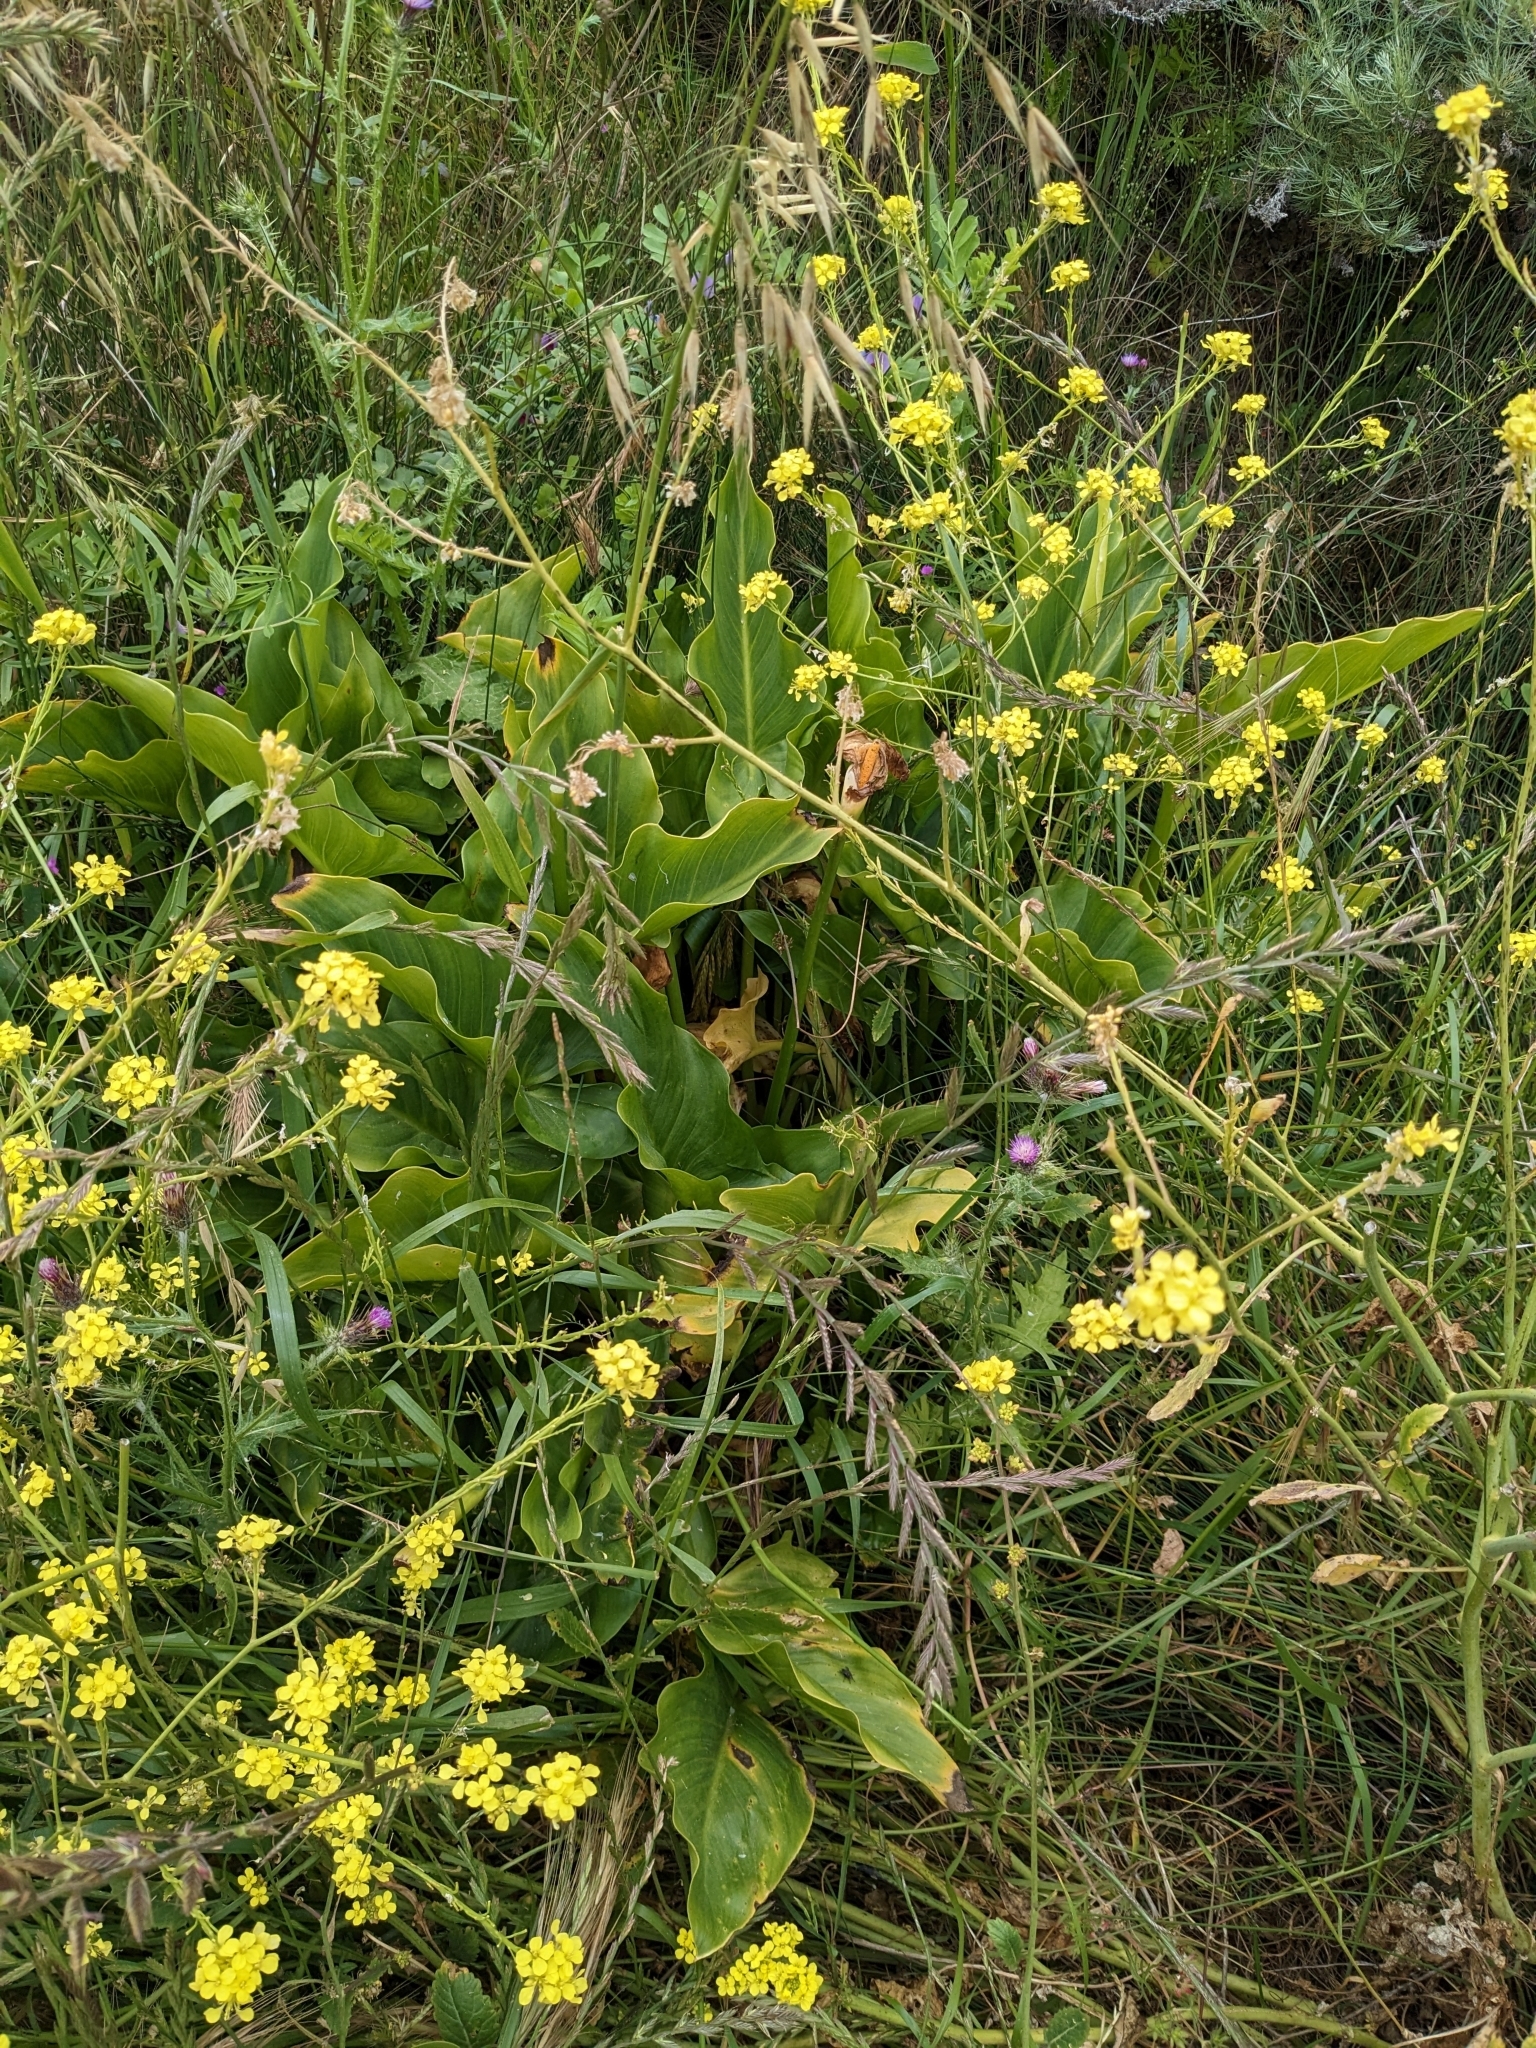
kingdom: Plantae
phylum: Tracheophyta
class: Liliopsida
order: Alismatales
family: Araceae
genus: Zantedeschia
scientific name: Zantedeschia aethiopica
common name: Altar-lily
